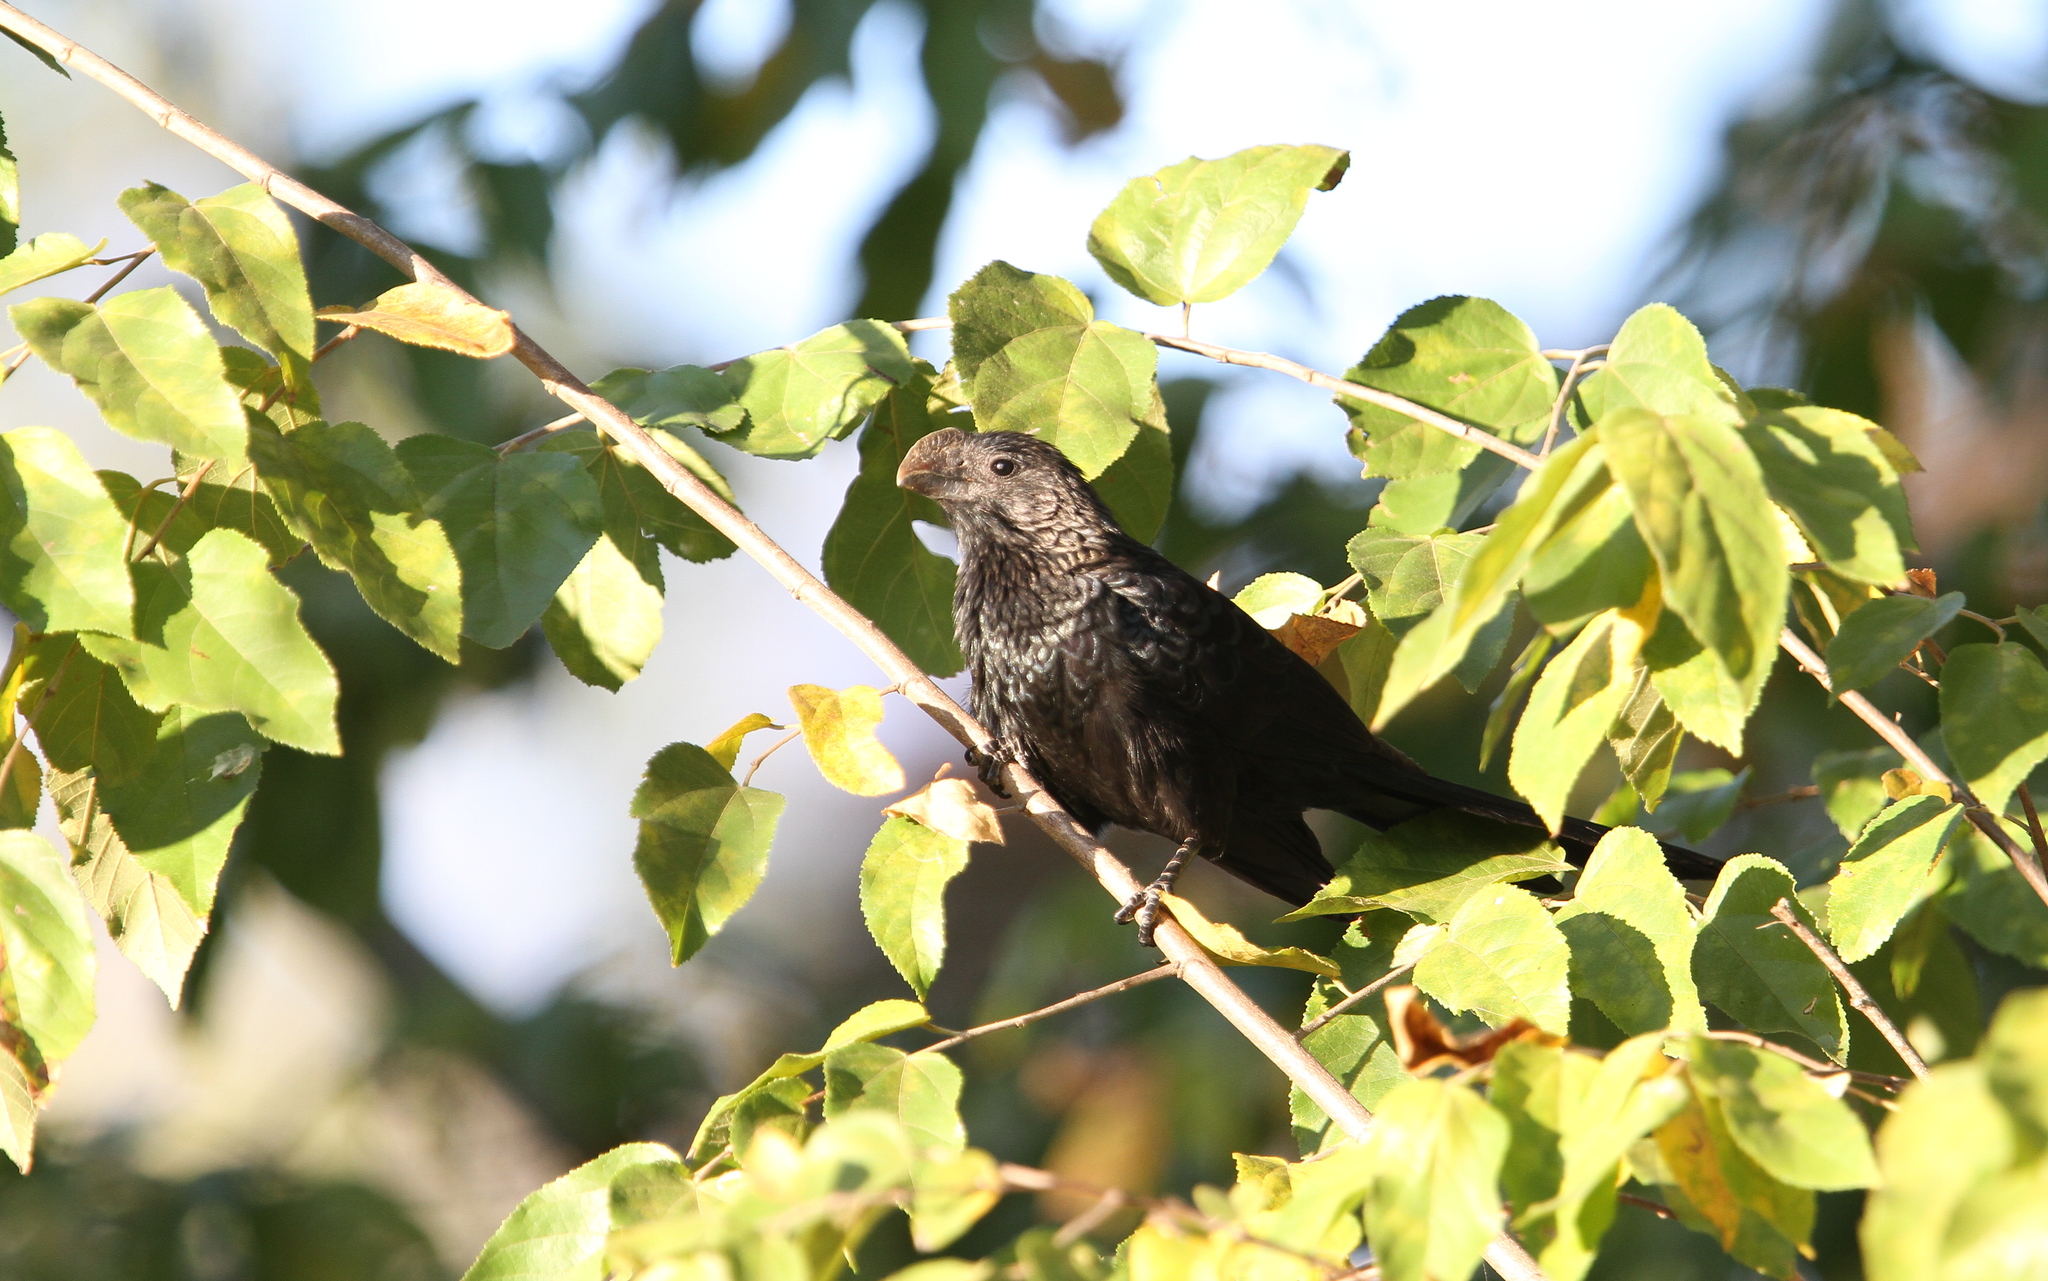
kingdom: Animalia
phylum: Chordata
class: Aves
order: Cuculiformes
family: Cuculidae
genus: Crotophaga
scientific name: Crotophaga ani
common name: Smooth-billed ani
